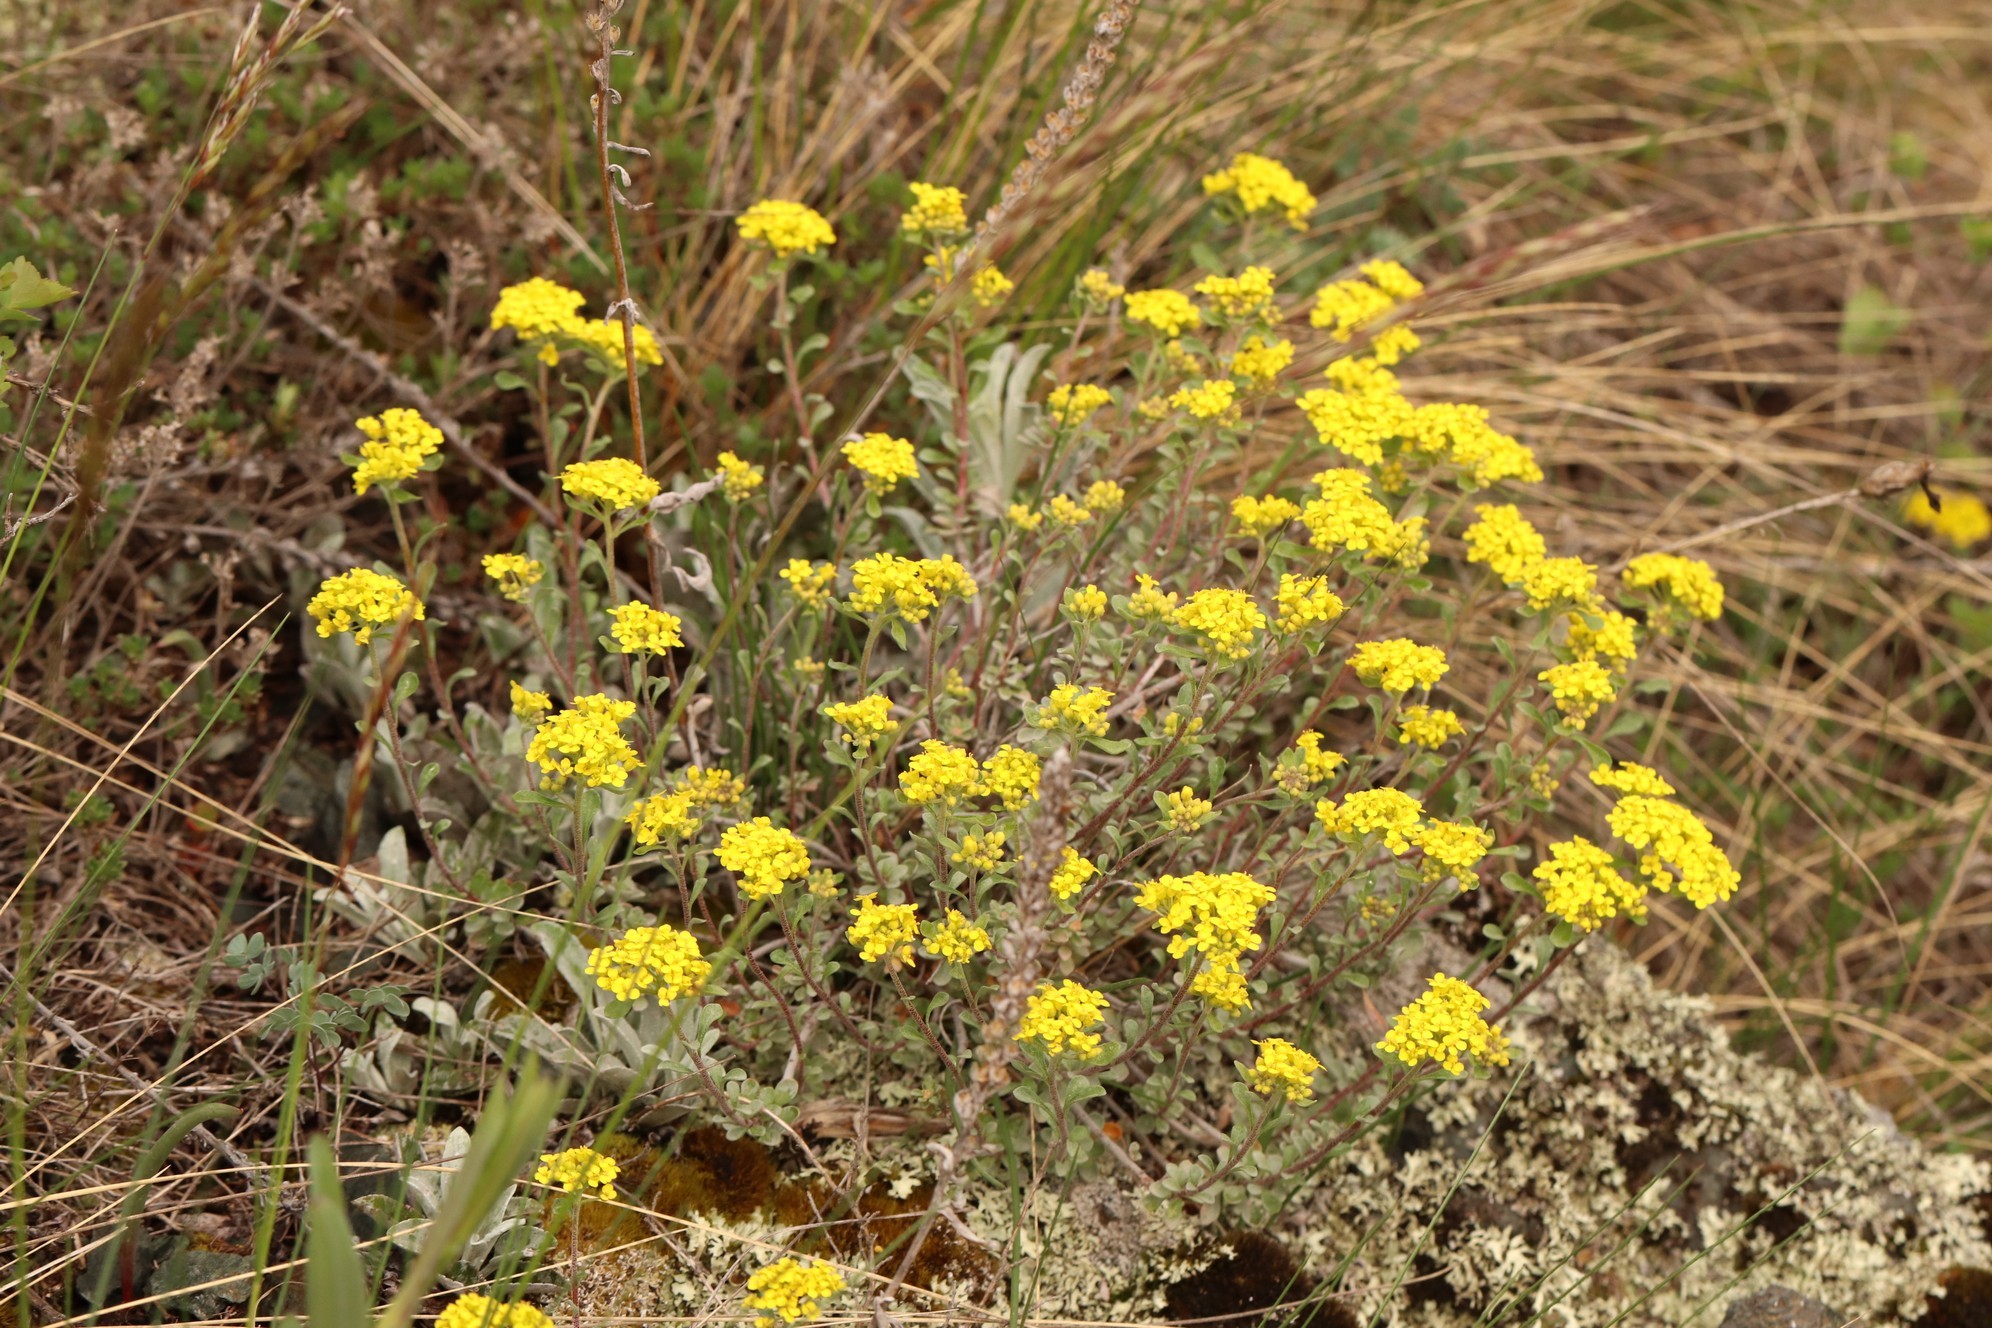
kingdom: Plantae
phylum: Tracheophyta
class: Magnoliopsida
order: Brassicales
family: Brassicaceae
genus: Odontarrhena
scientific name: Odontarrhena obovata
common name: American alyssum
